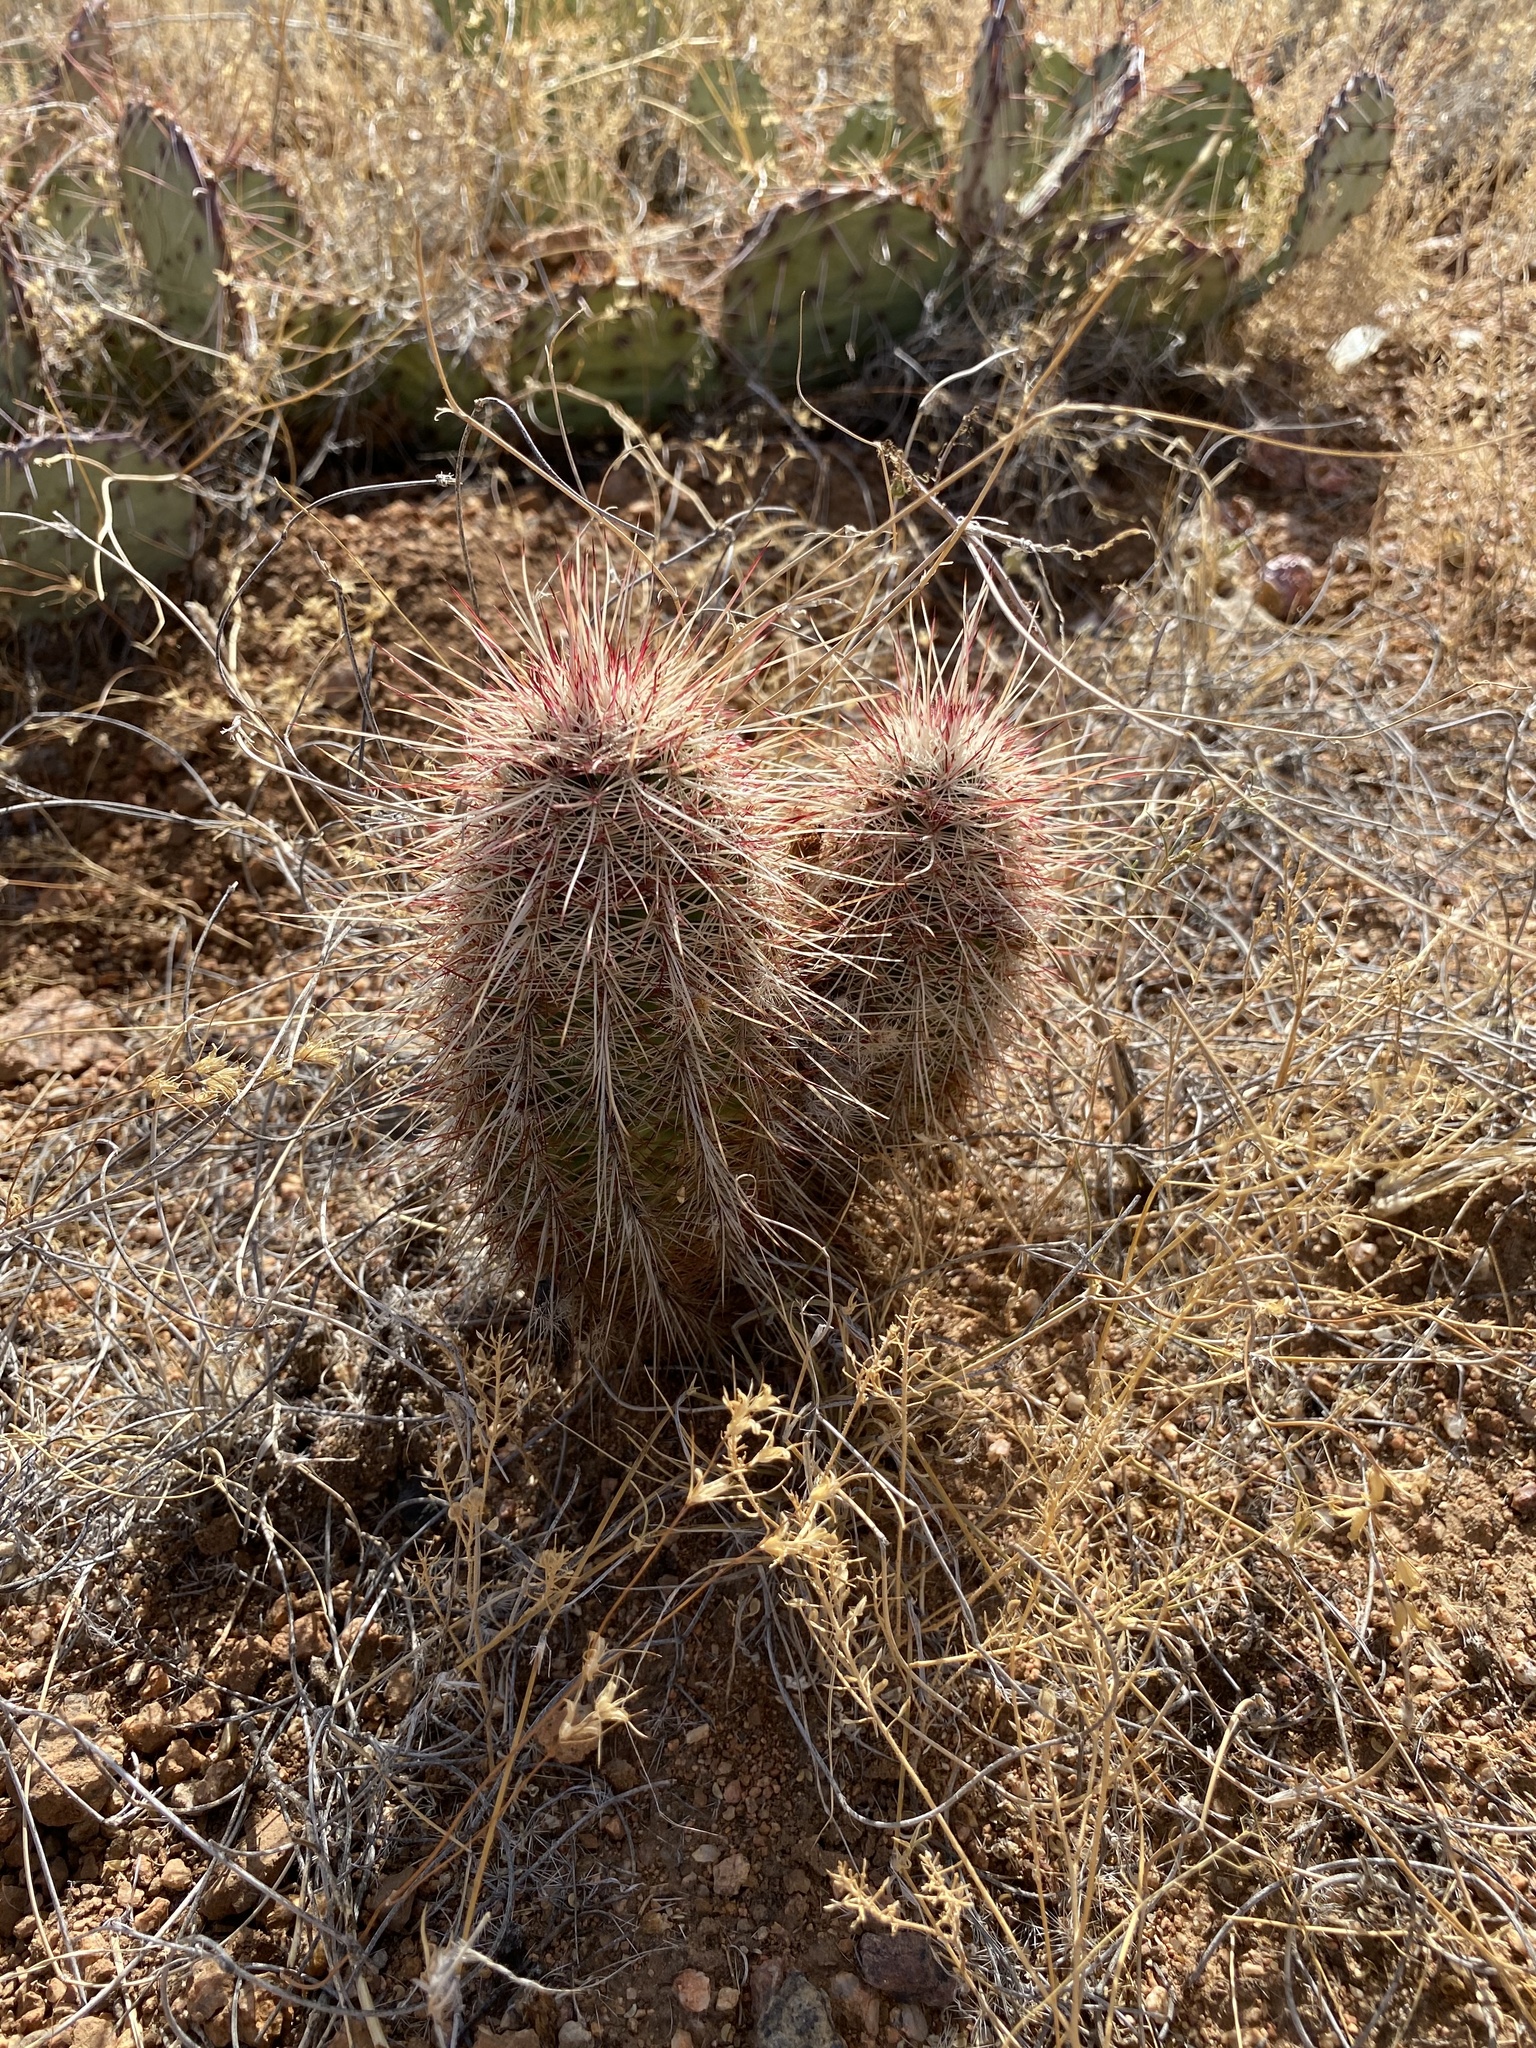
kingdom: Plantae
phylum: Tracheophyta
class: Magnoliopsida
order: Caryophyllales
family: Cactaceae
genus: Echinocereus
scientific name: Echinocereus viridiflorus
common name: Nylon hedgehog cactus
